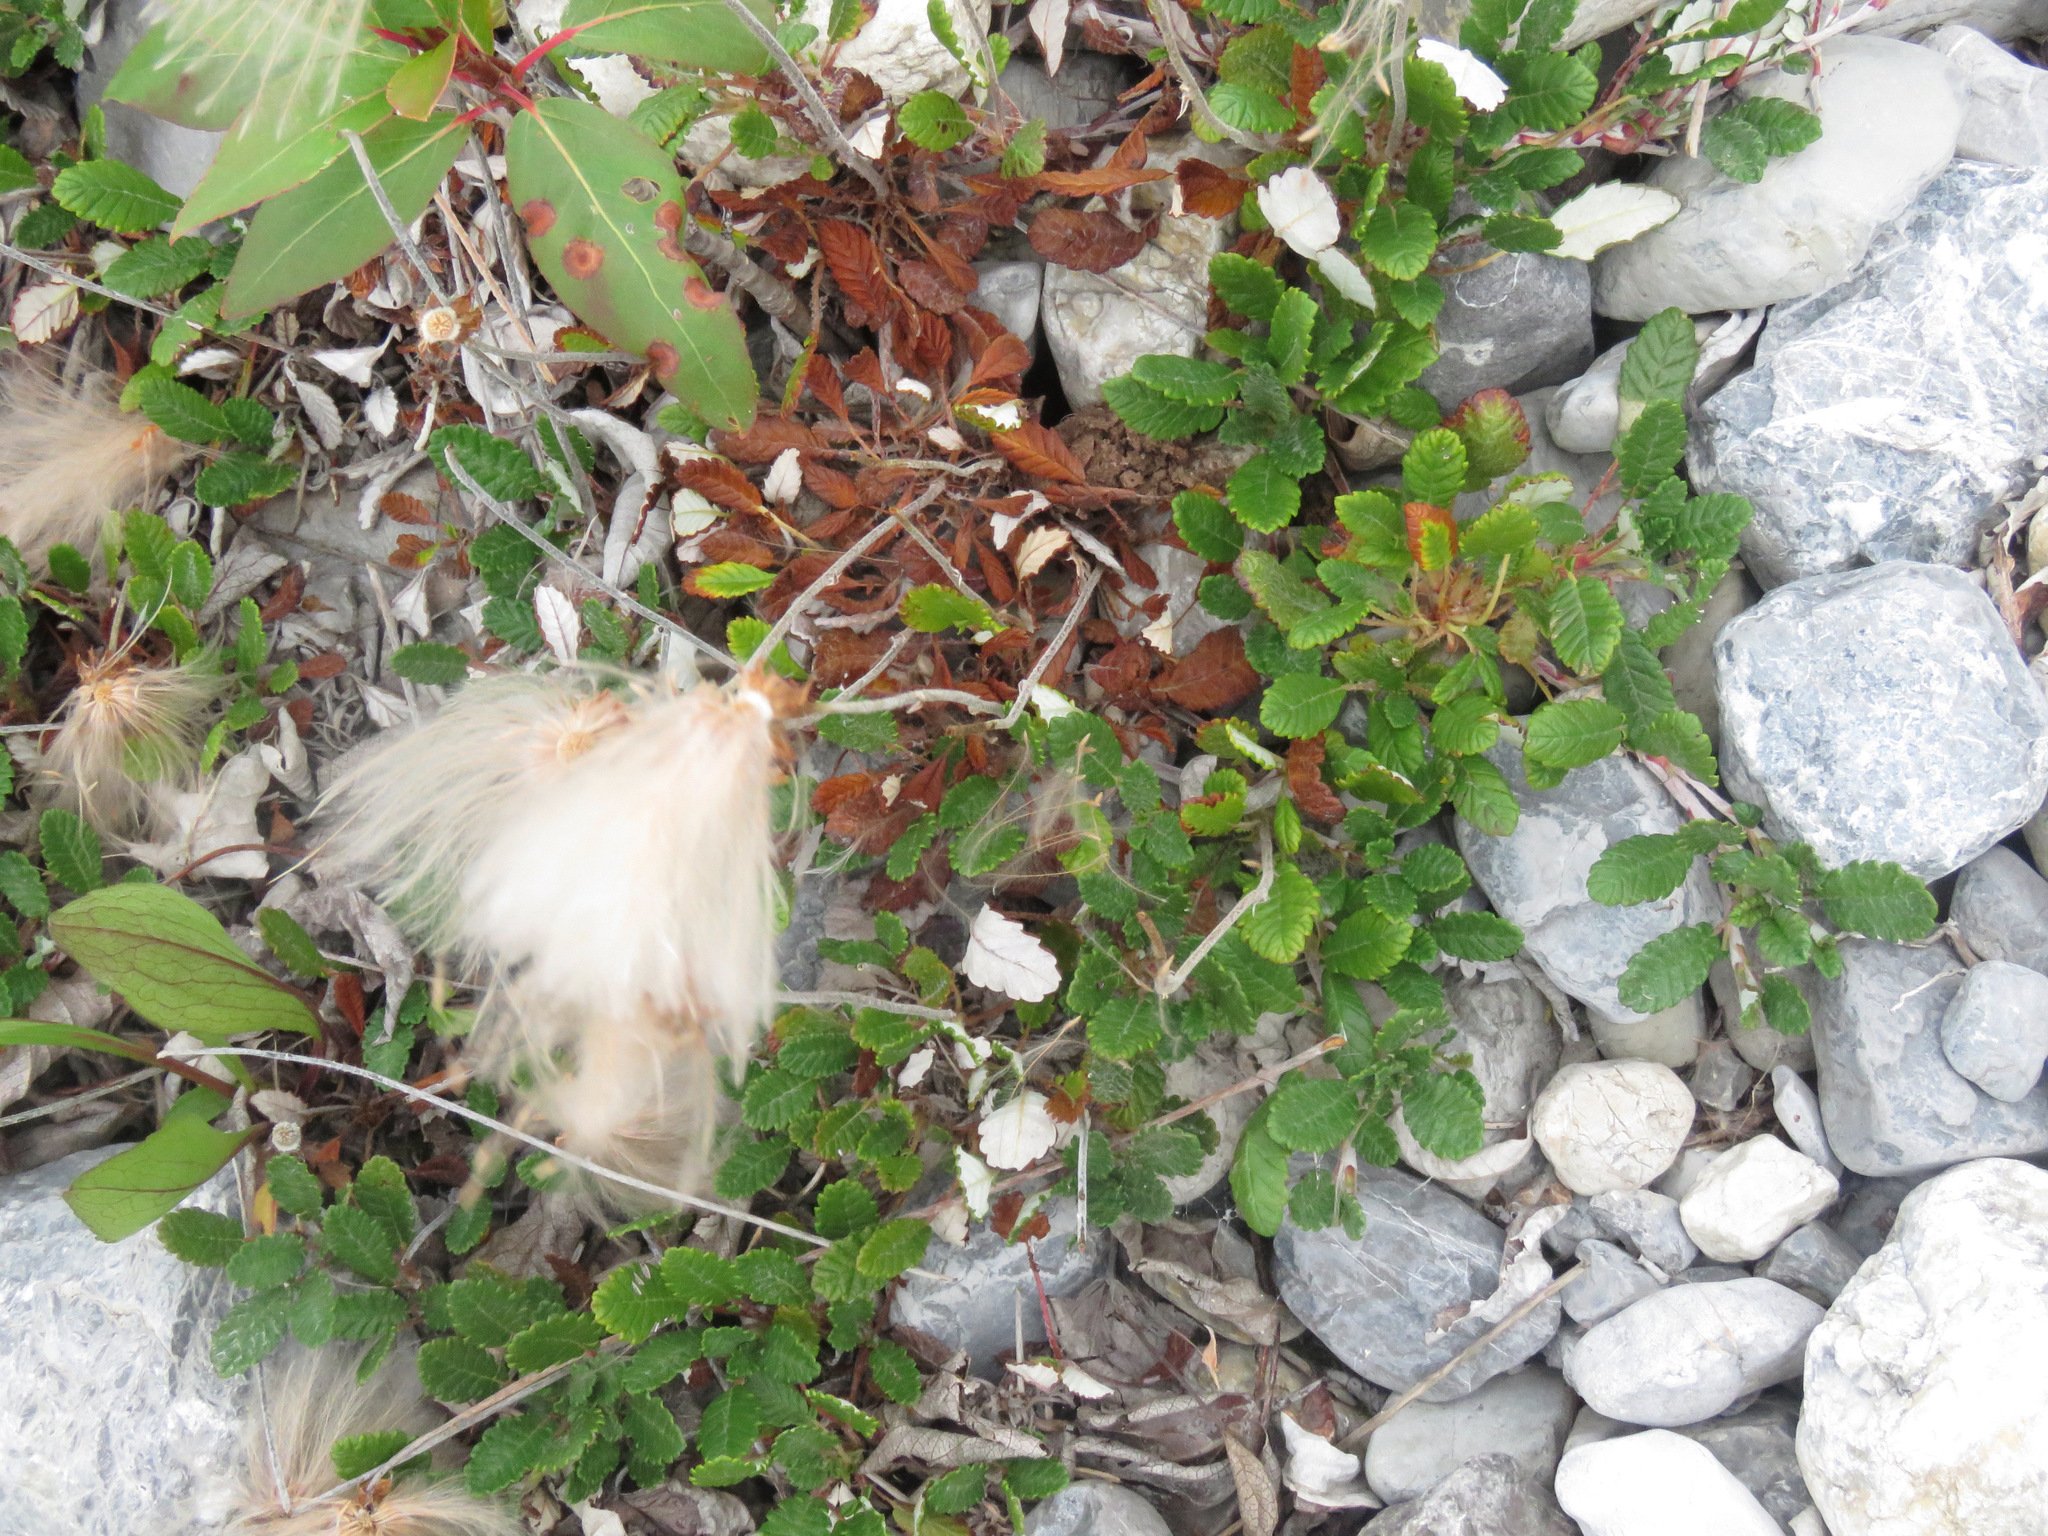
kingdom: Plantae
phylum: Tracheophyta
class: Magnoliopsida
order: Rosales
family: Rosaceae
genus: Dryas
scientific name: Dryas drummondii
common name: Drummond's dryad
